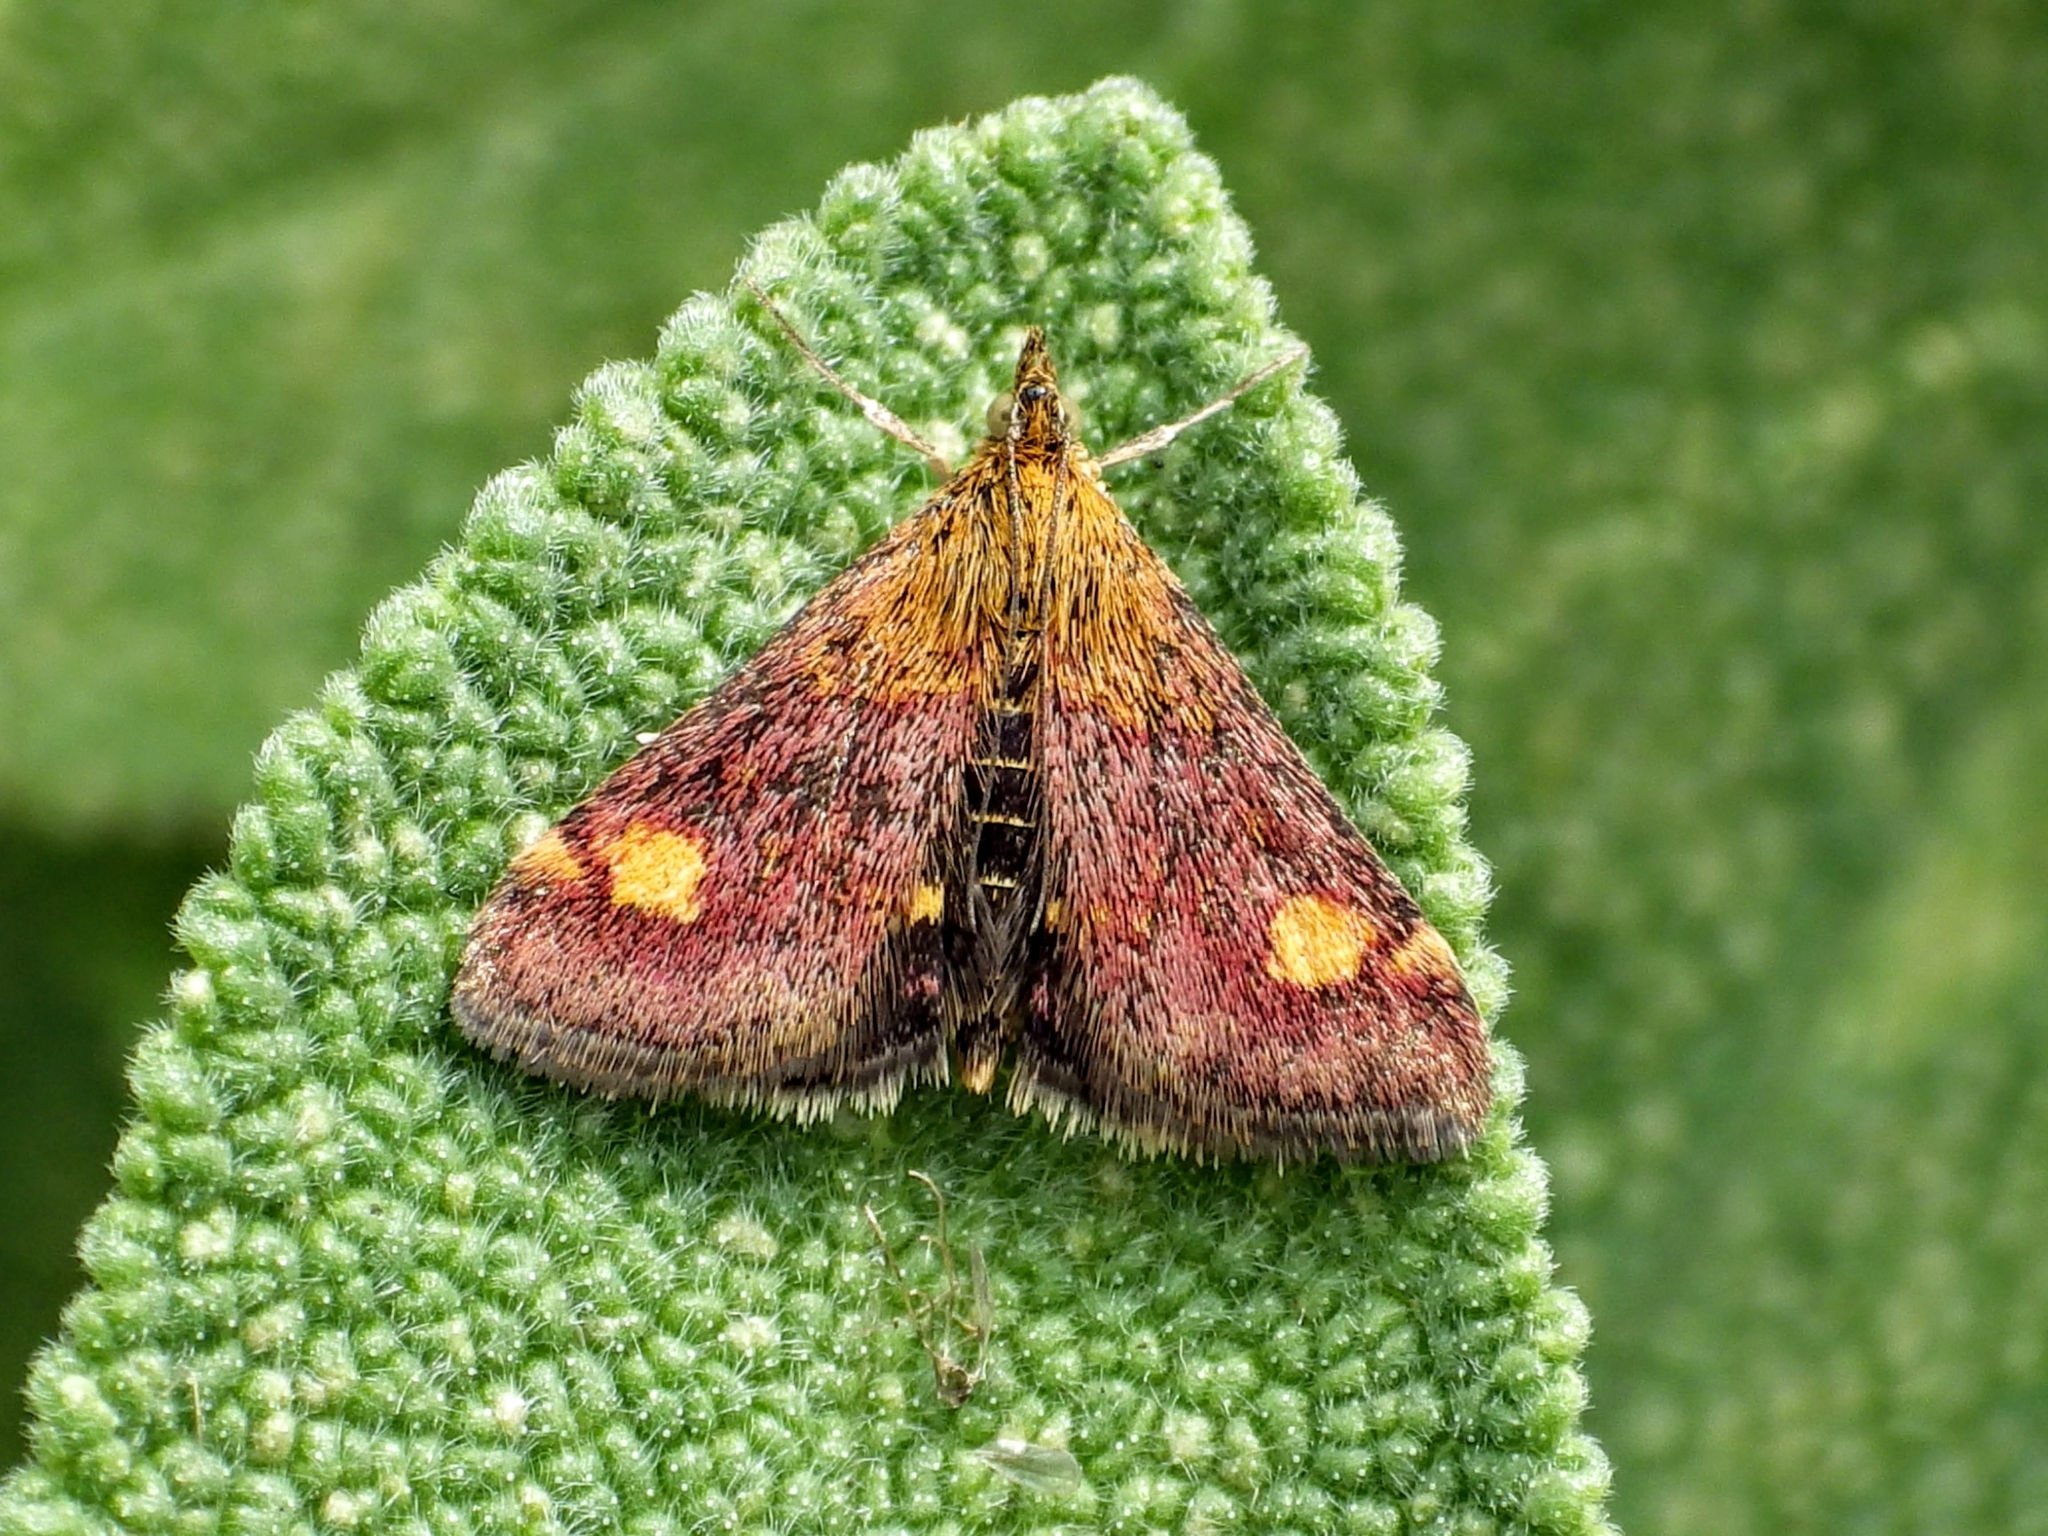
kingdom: Animalia
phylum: Arthropoda
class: Insecta
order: Lepidoptera
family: Crambidae
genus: Pyrausta
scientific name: Pyrausta aurata
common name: Small purple & gold
